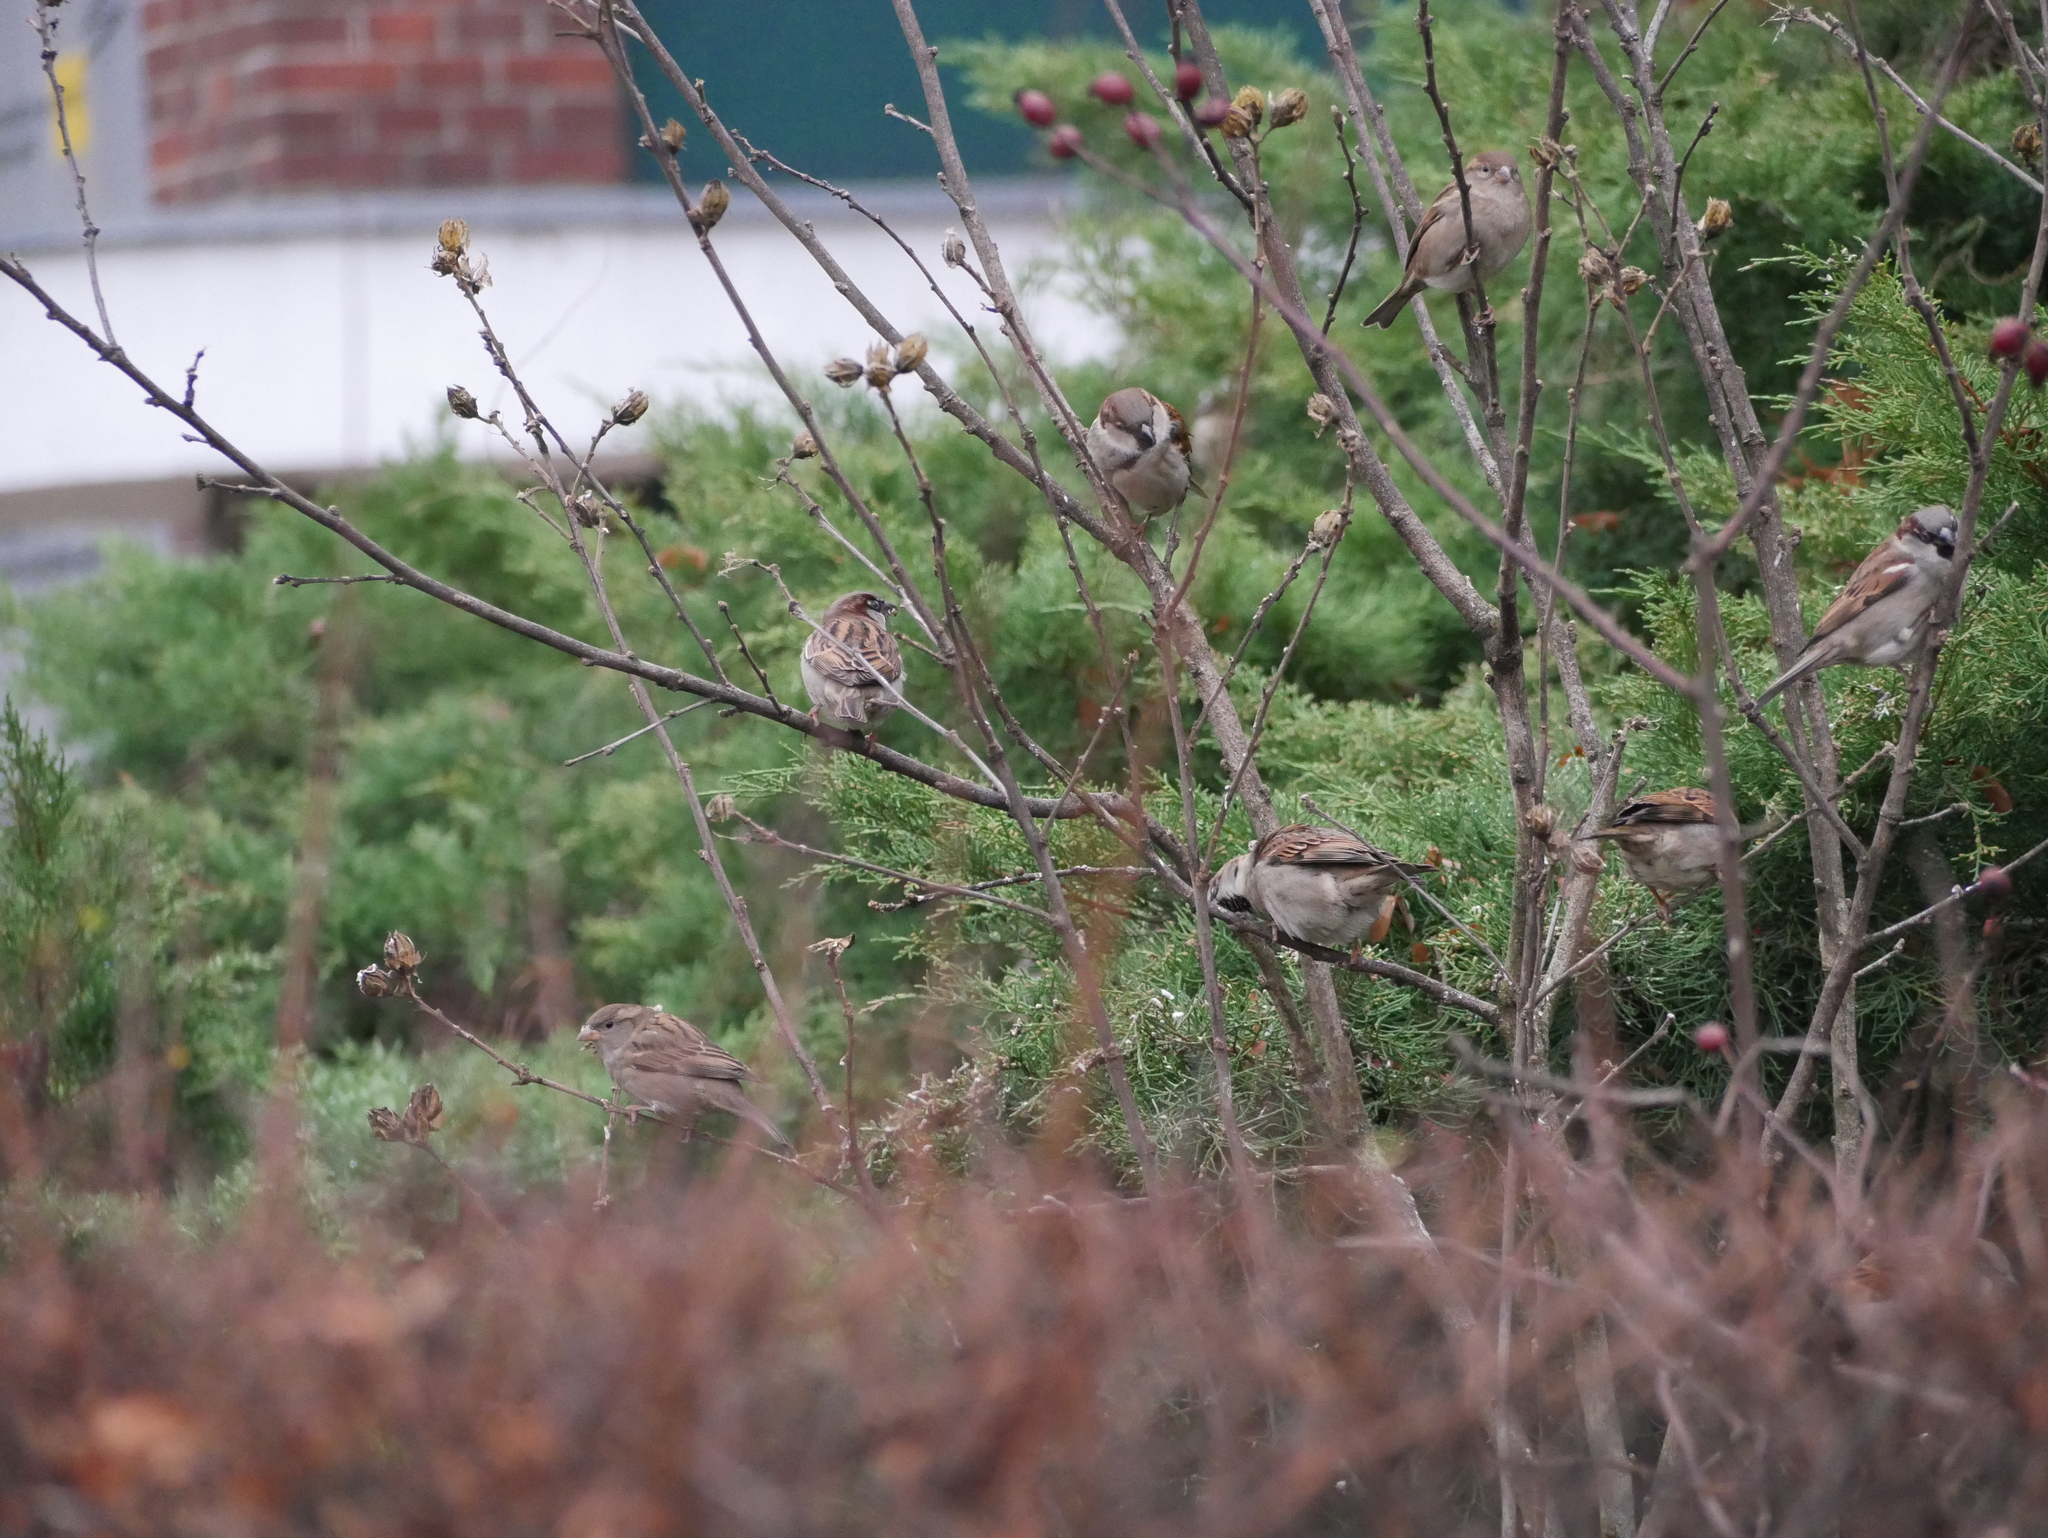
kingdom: Animalia
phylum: Chordata
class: Aves
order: Passeriformes
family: Passeridae
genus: Passer
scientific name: Passer domesticus
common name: House sparrow
